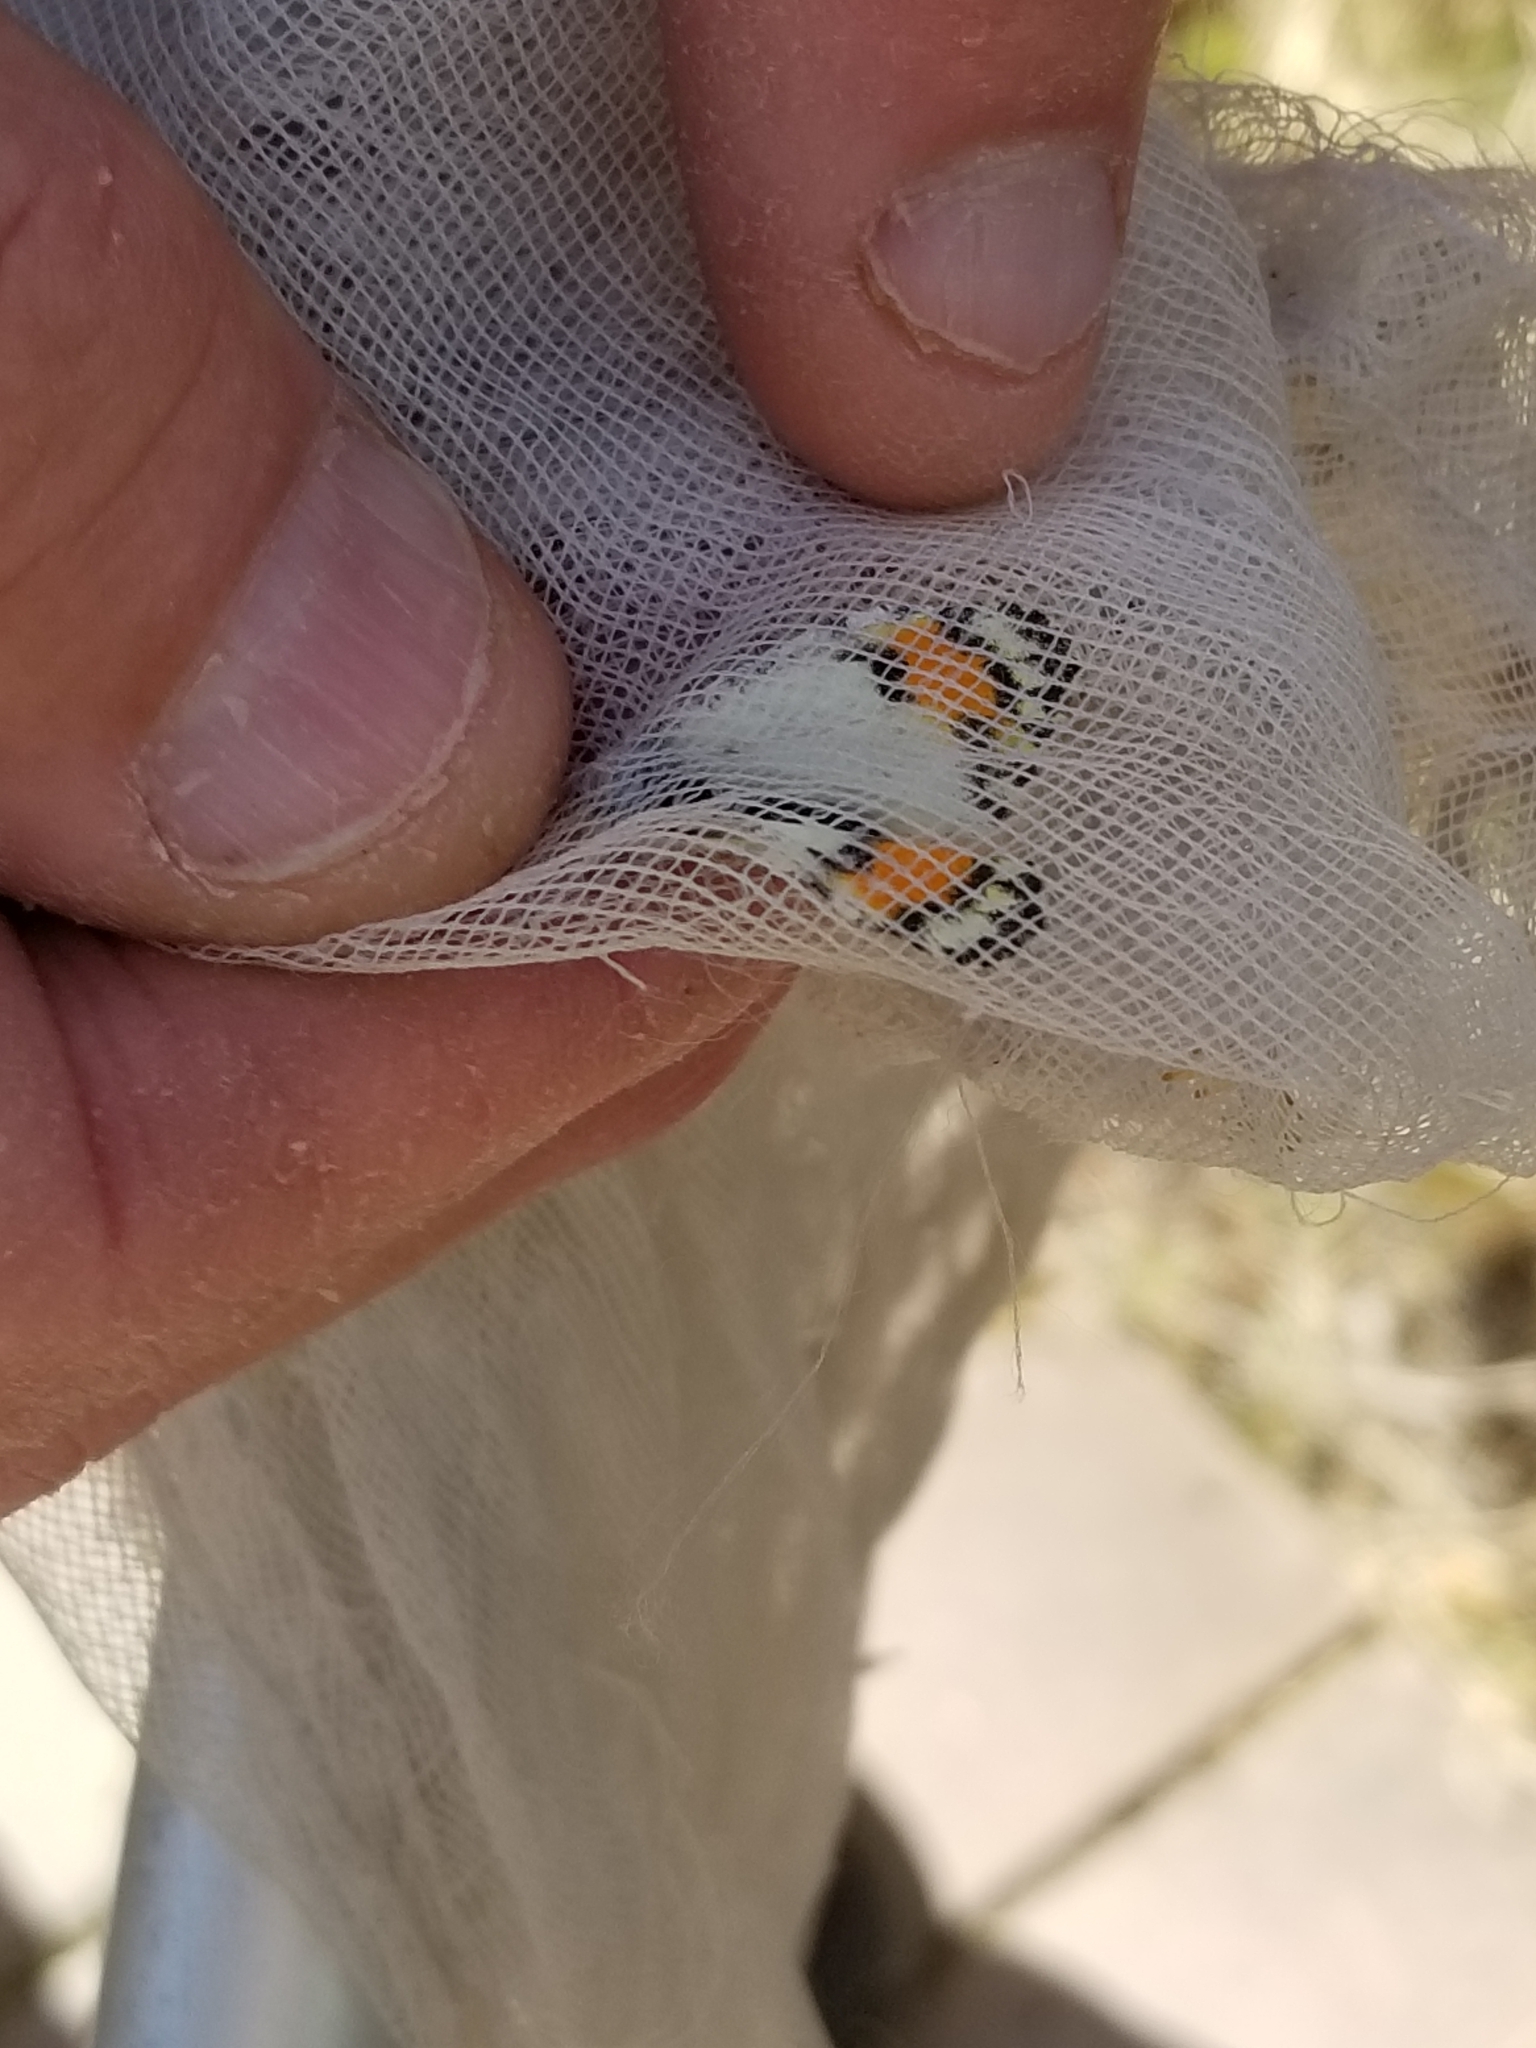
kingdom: Animalia
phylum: Arthropoda
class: Insecta
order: Lepidoptera
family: Pieridae
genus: Anthocharis
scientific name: Anthocharis sara
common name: Sara's orangetip
